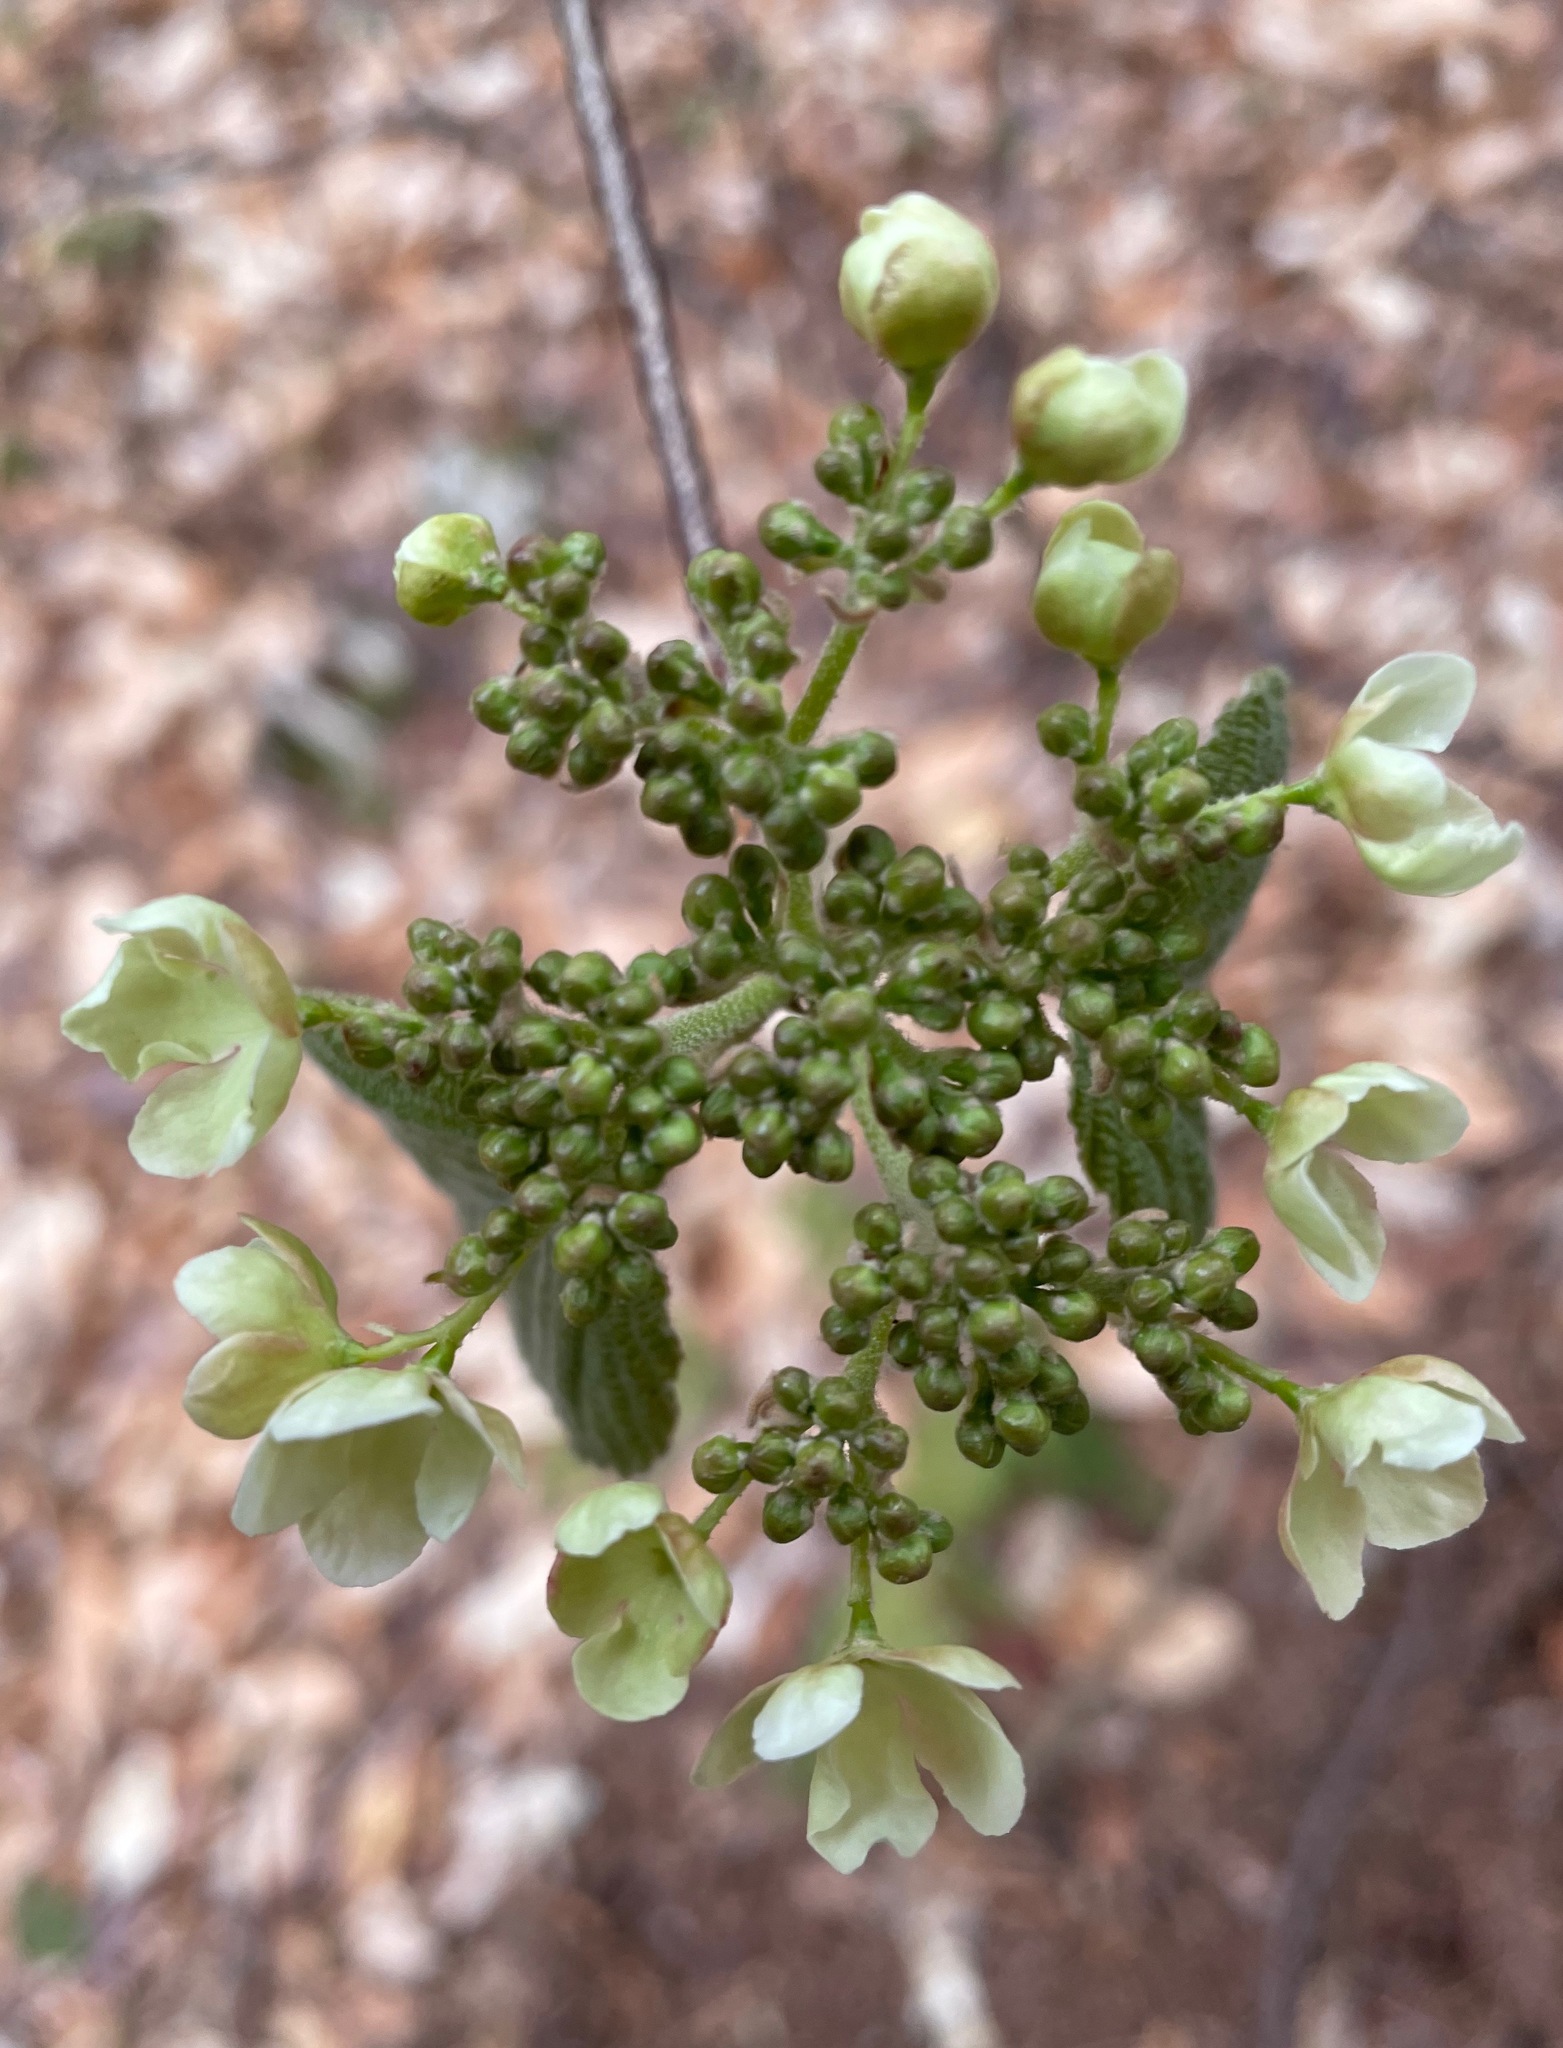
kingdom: Plantae
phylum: Tracheophyta
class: Magnoliopsida
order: Dipsacales
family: Viburnaceae
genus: Viburnum
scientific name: Viburnum lantanoides
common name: Hobblebush
